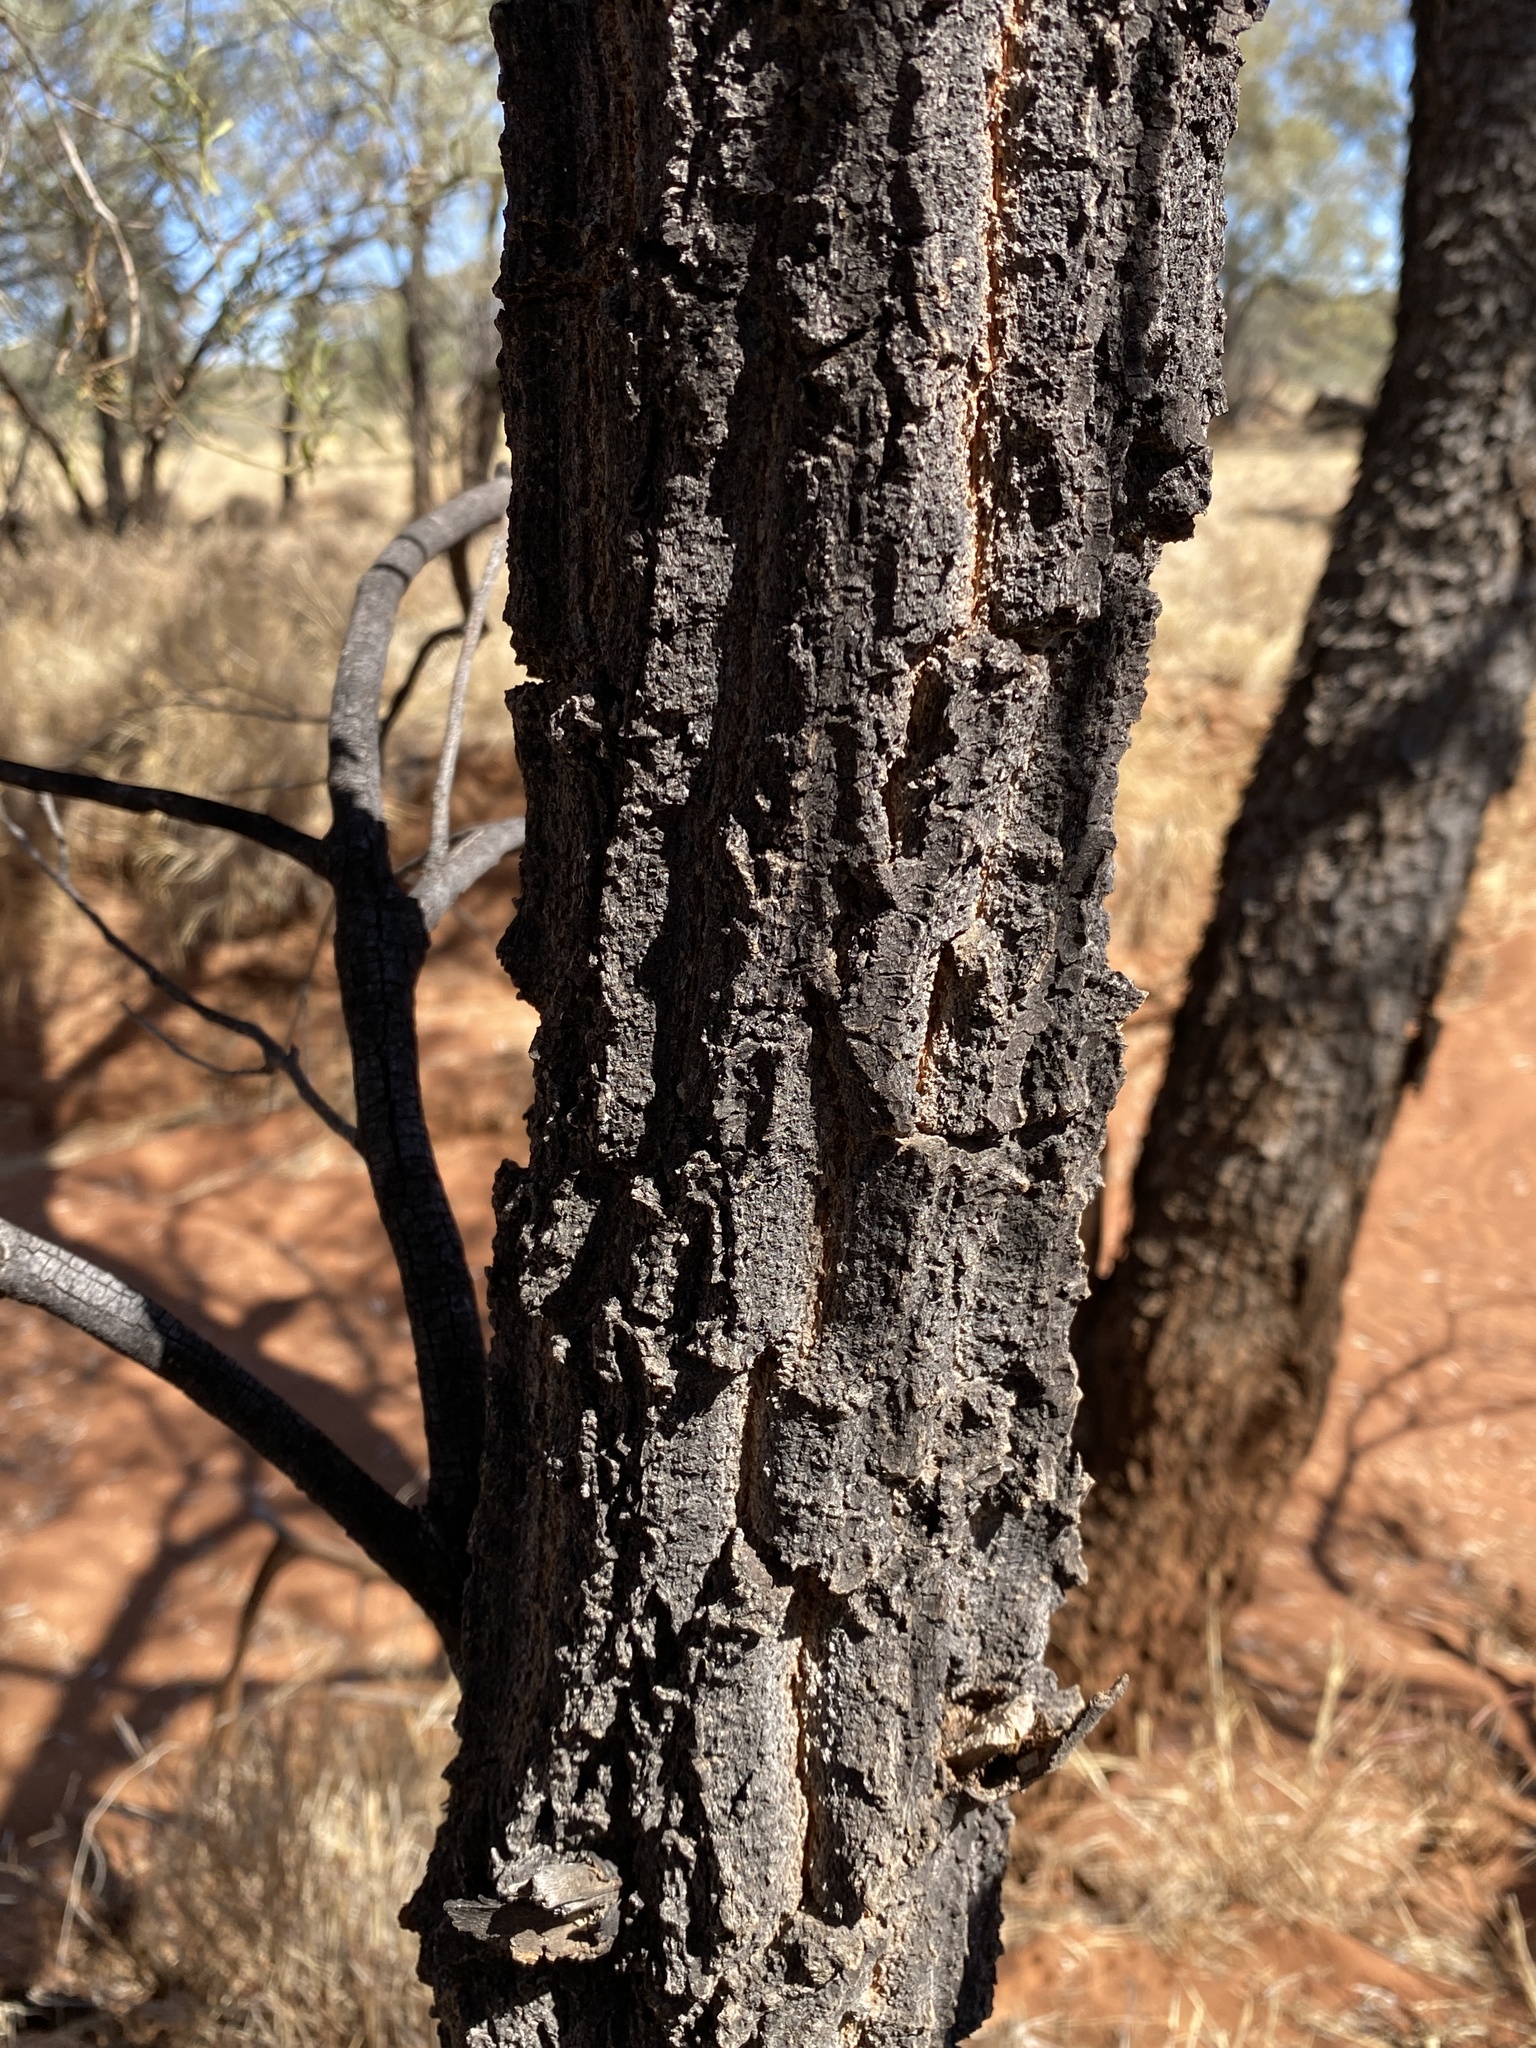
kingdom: Plantae
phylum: Tracheophyta
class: Magnoliopsida
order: Proteales
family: Proteaceae
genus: Grevillea
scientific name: Grevillea striata
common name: Beefwood
